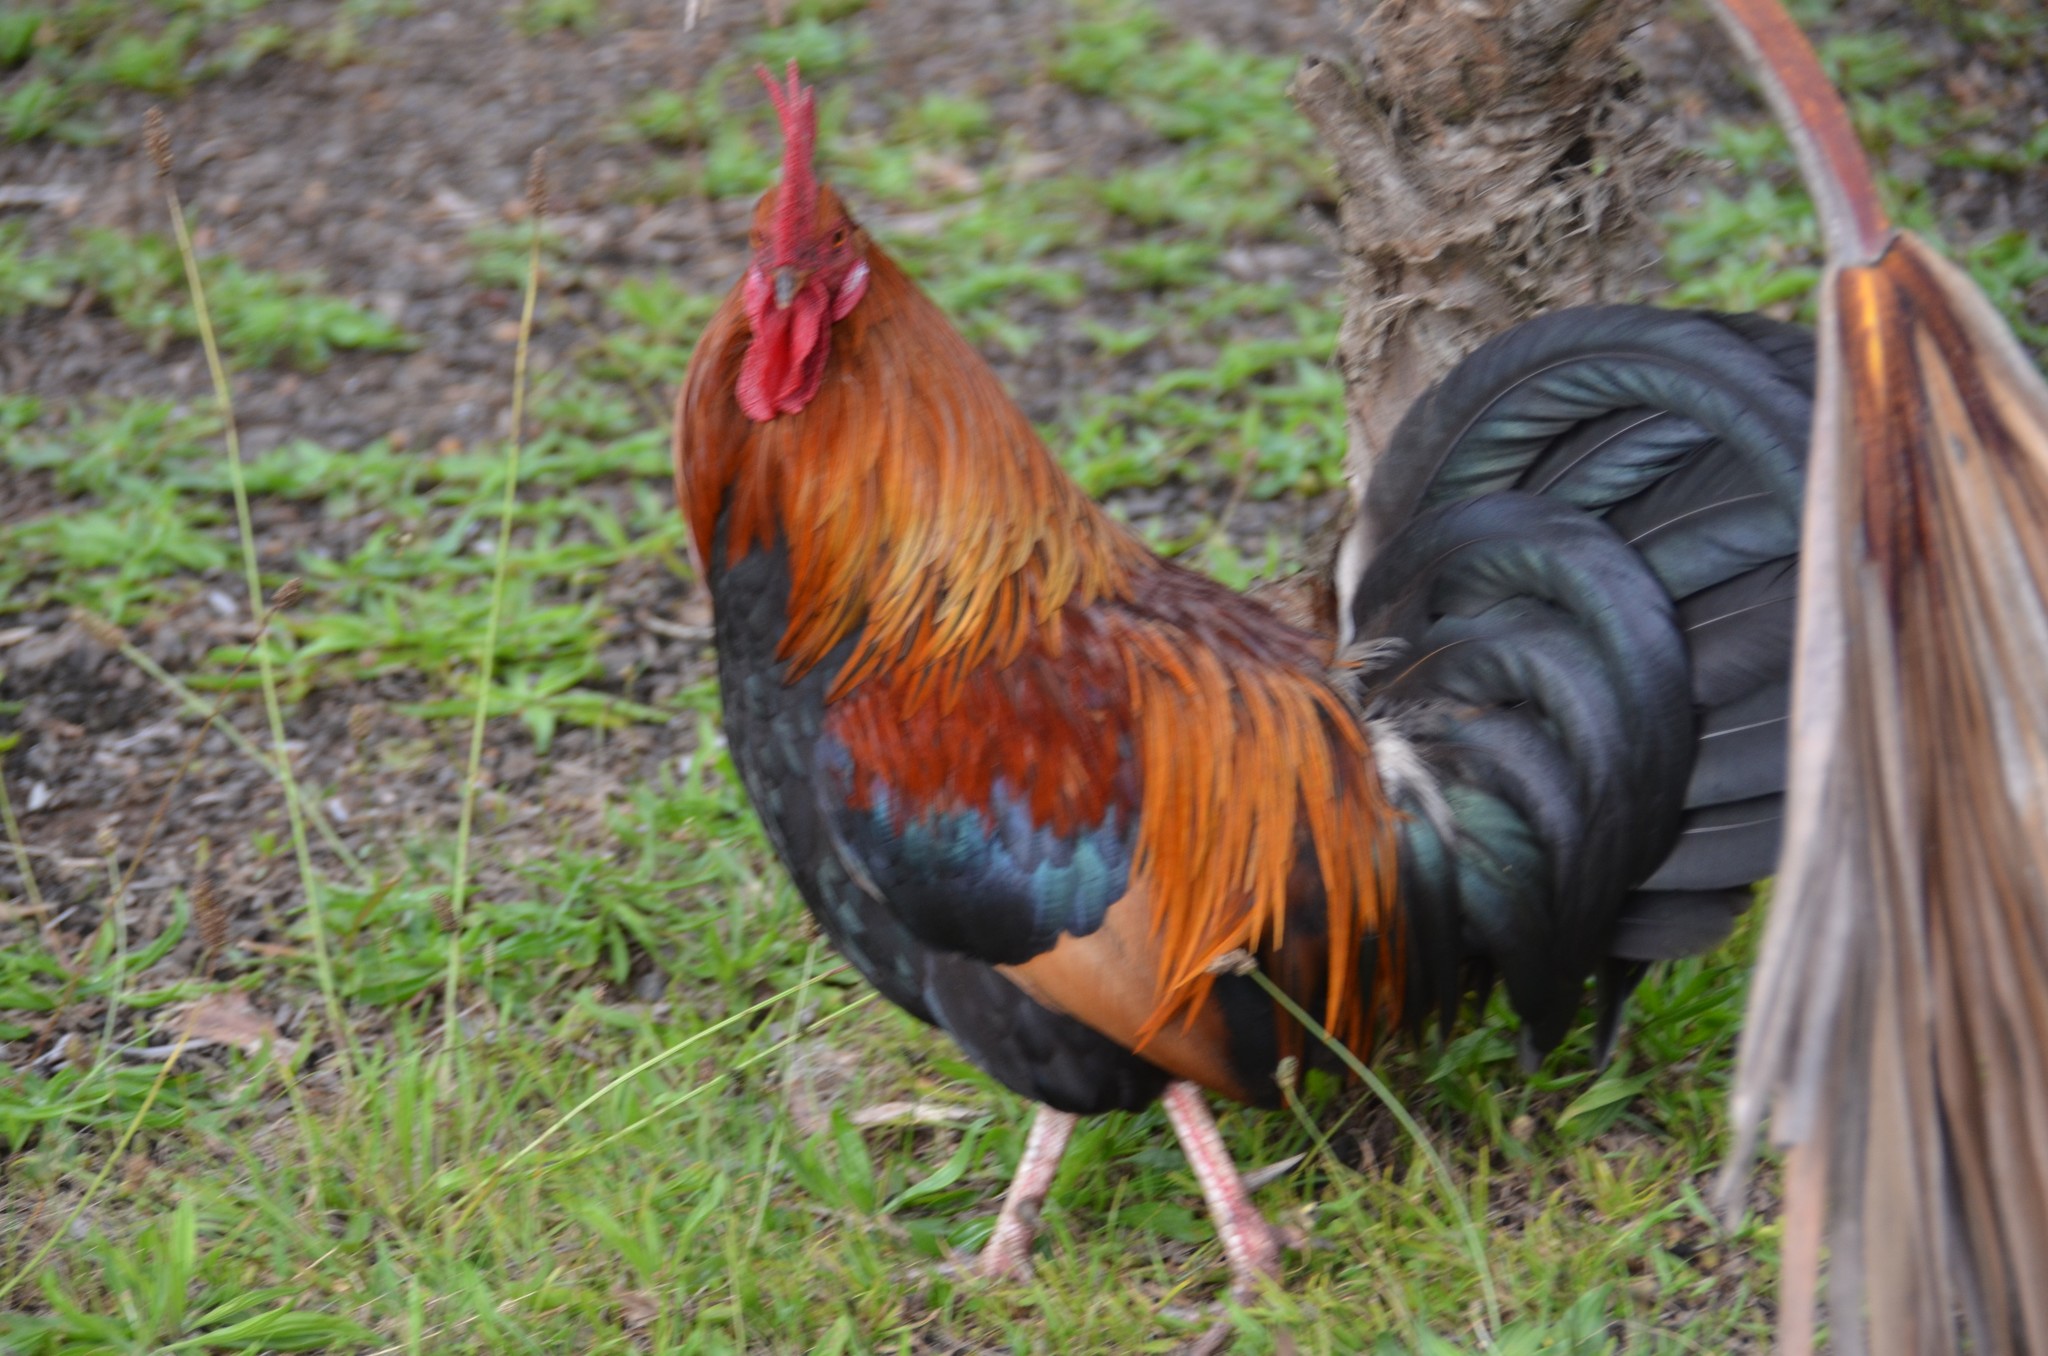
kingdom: Animalia
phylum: Chordata
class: Aves
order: Galliformes
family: Phasianidae
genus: Gallus
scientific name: Gallus gallus
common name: Red junglefowl
